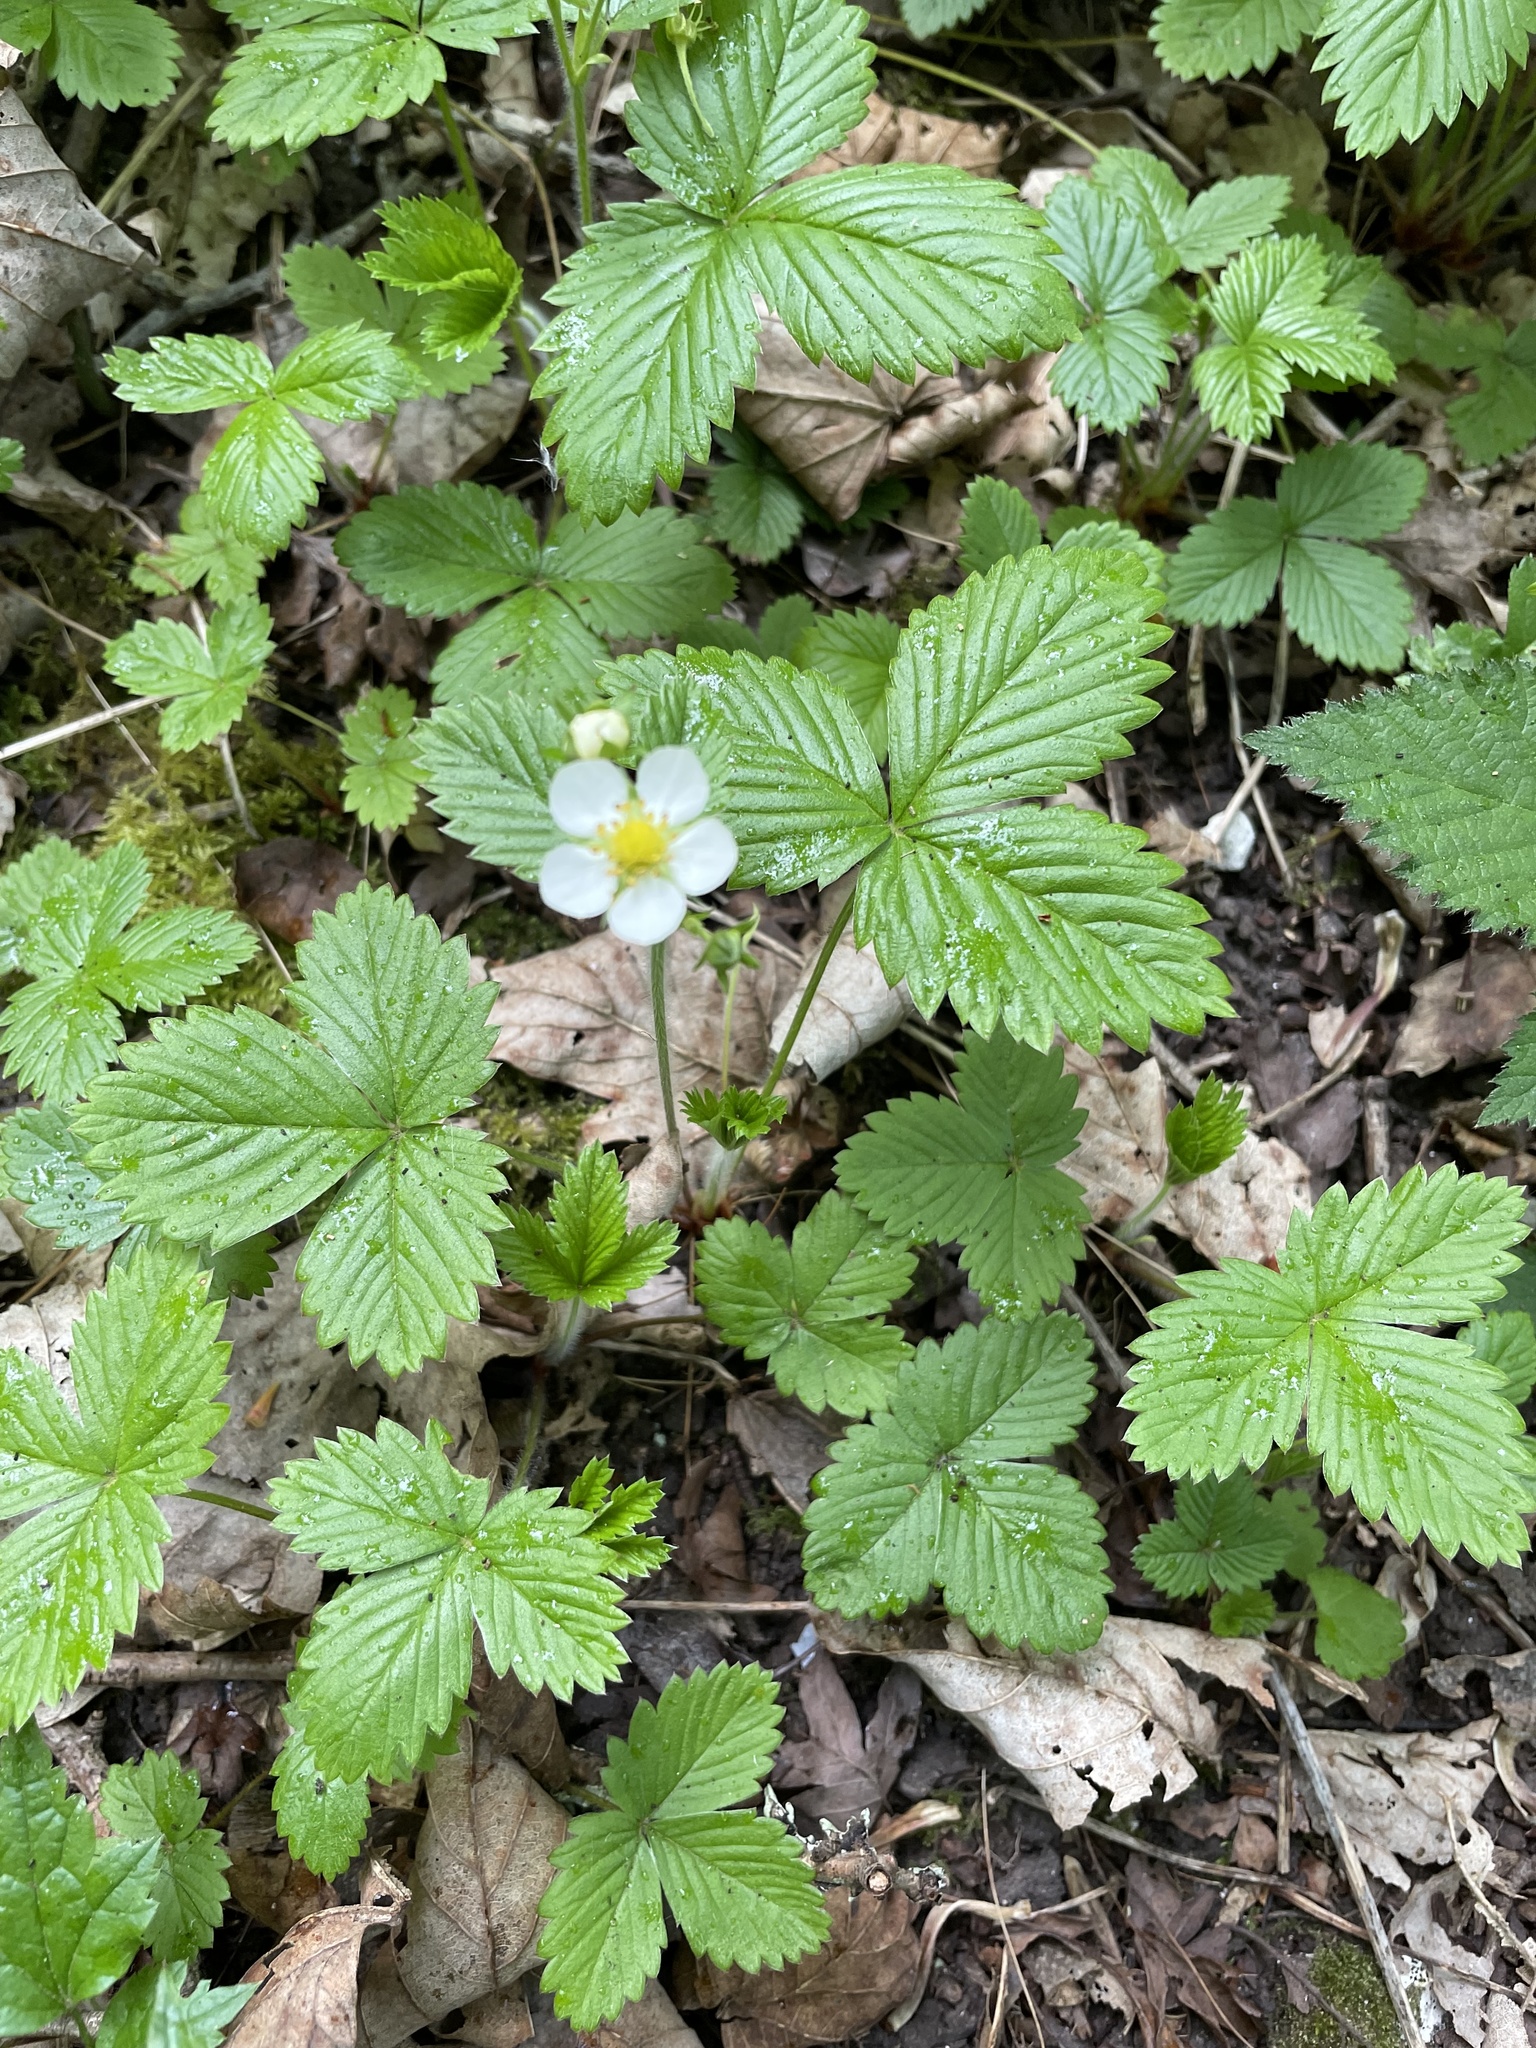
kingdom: Plantae
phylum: Tracheophyta
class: Magnoliopsida
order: Rosales
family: Rosaceae
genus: Fragaria
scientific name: Fragaria vesca
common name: Wild strawberry
